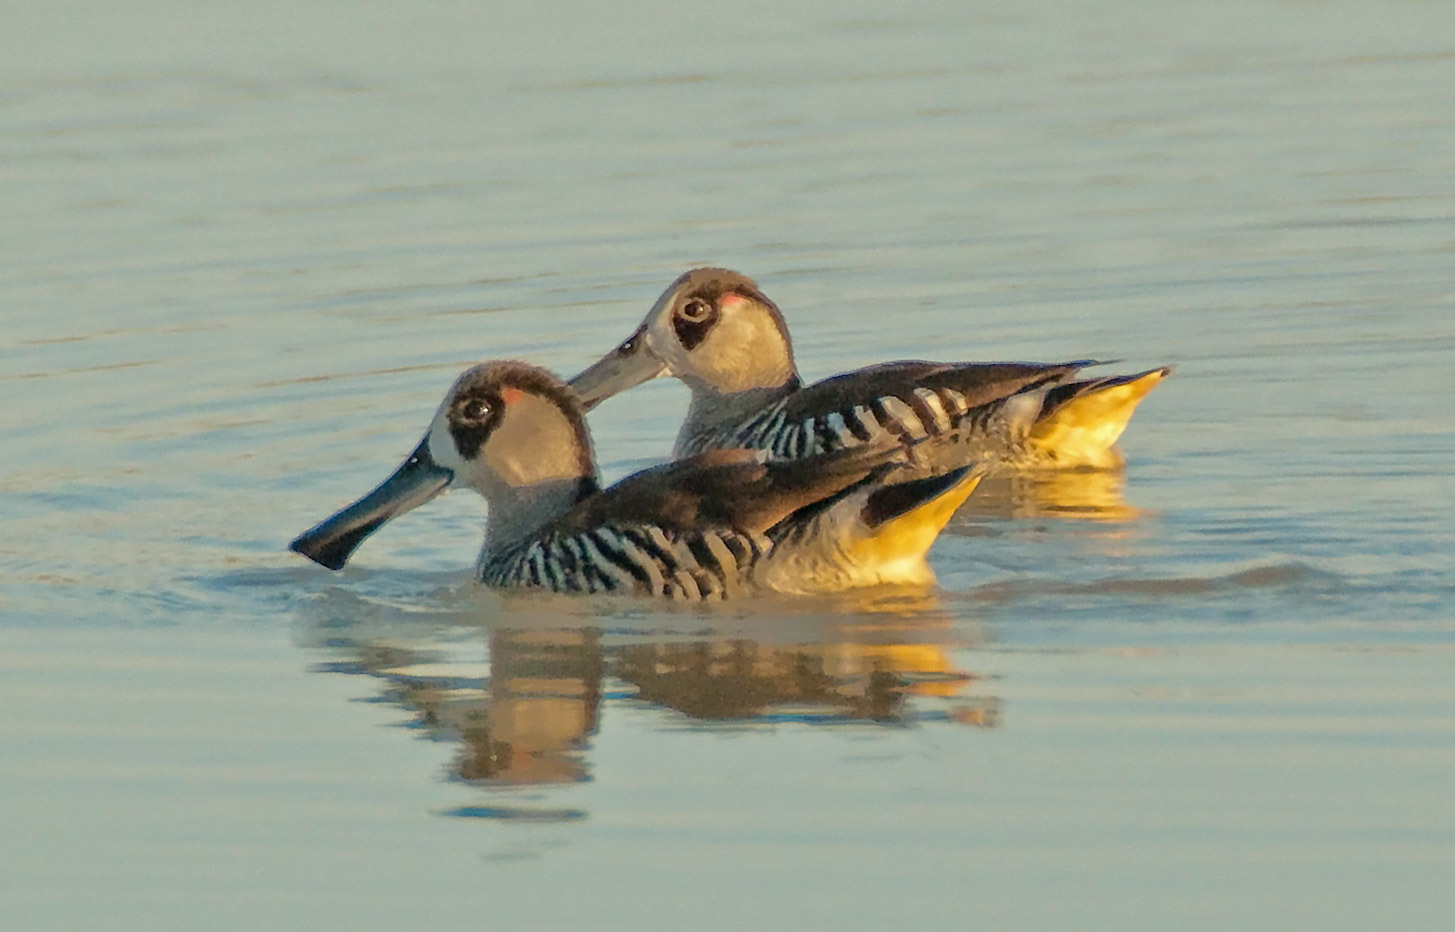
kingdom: Animalia
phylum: Chordata
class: Aves
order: Anseriformes
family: Anatidae
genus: Malacorhynchus
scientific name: Malacorhynchus membranaceus
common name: Pink-eared duck
